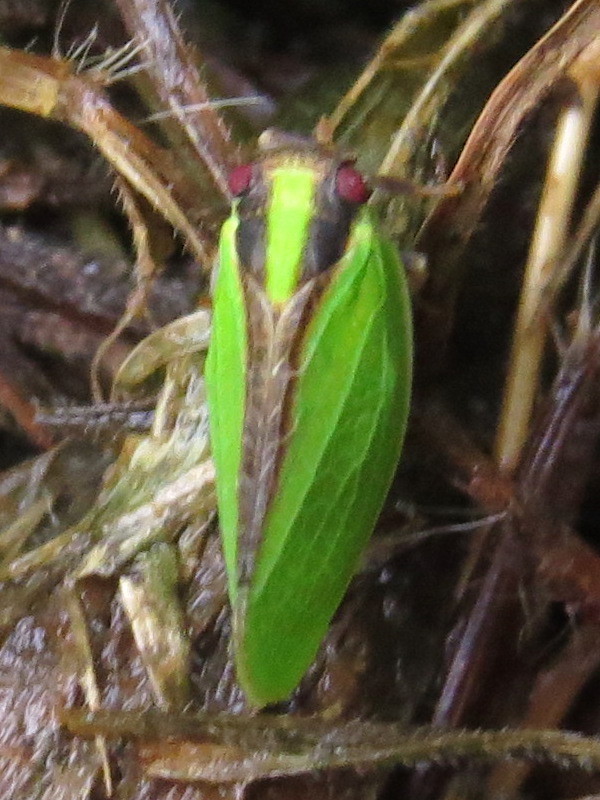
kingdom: Animalia
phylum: Arthropoda
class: Insecta
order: Hemiptera
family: Acanaloniidae
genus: Acanalonia
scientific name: Acanalonia bivittata
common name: Two-striped planthopper
